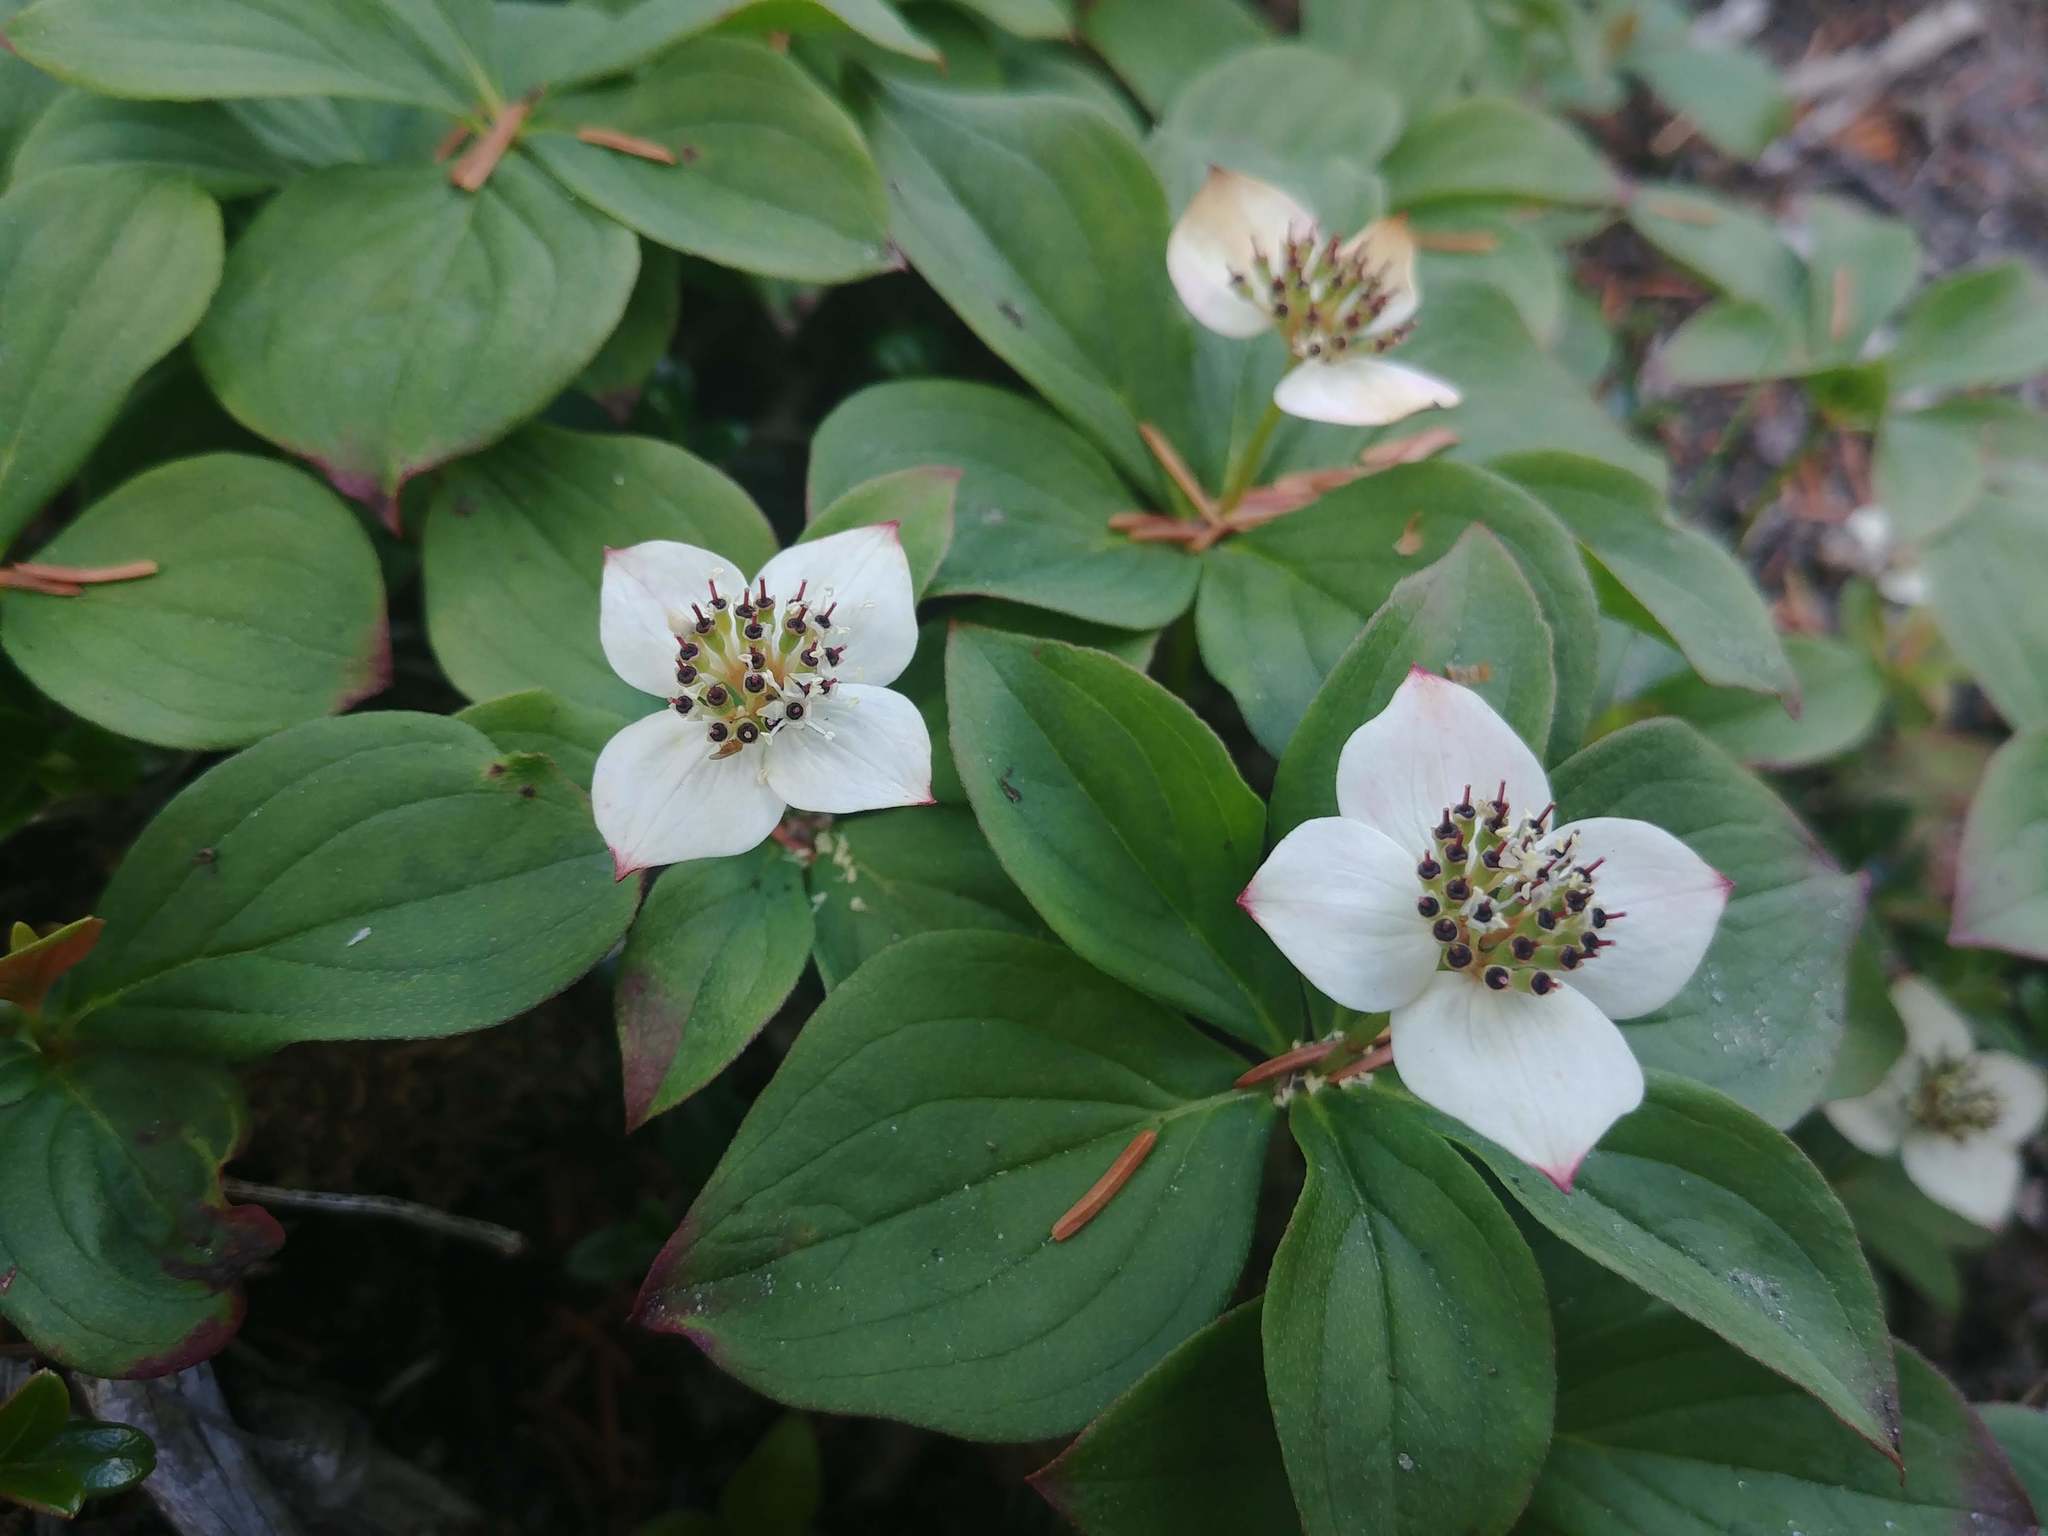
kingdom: Plantae
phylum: Tracheophyta
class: Magnoliopsida
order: Cornales
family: Cornaceae
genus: Cornus
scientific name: Cornus canadensis
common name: Creeping dogwood
